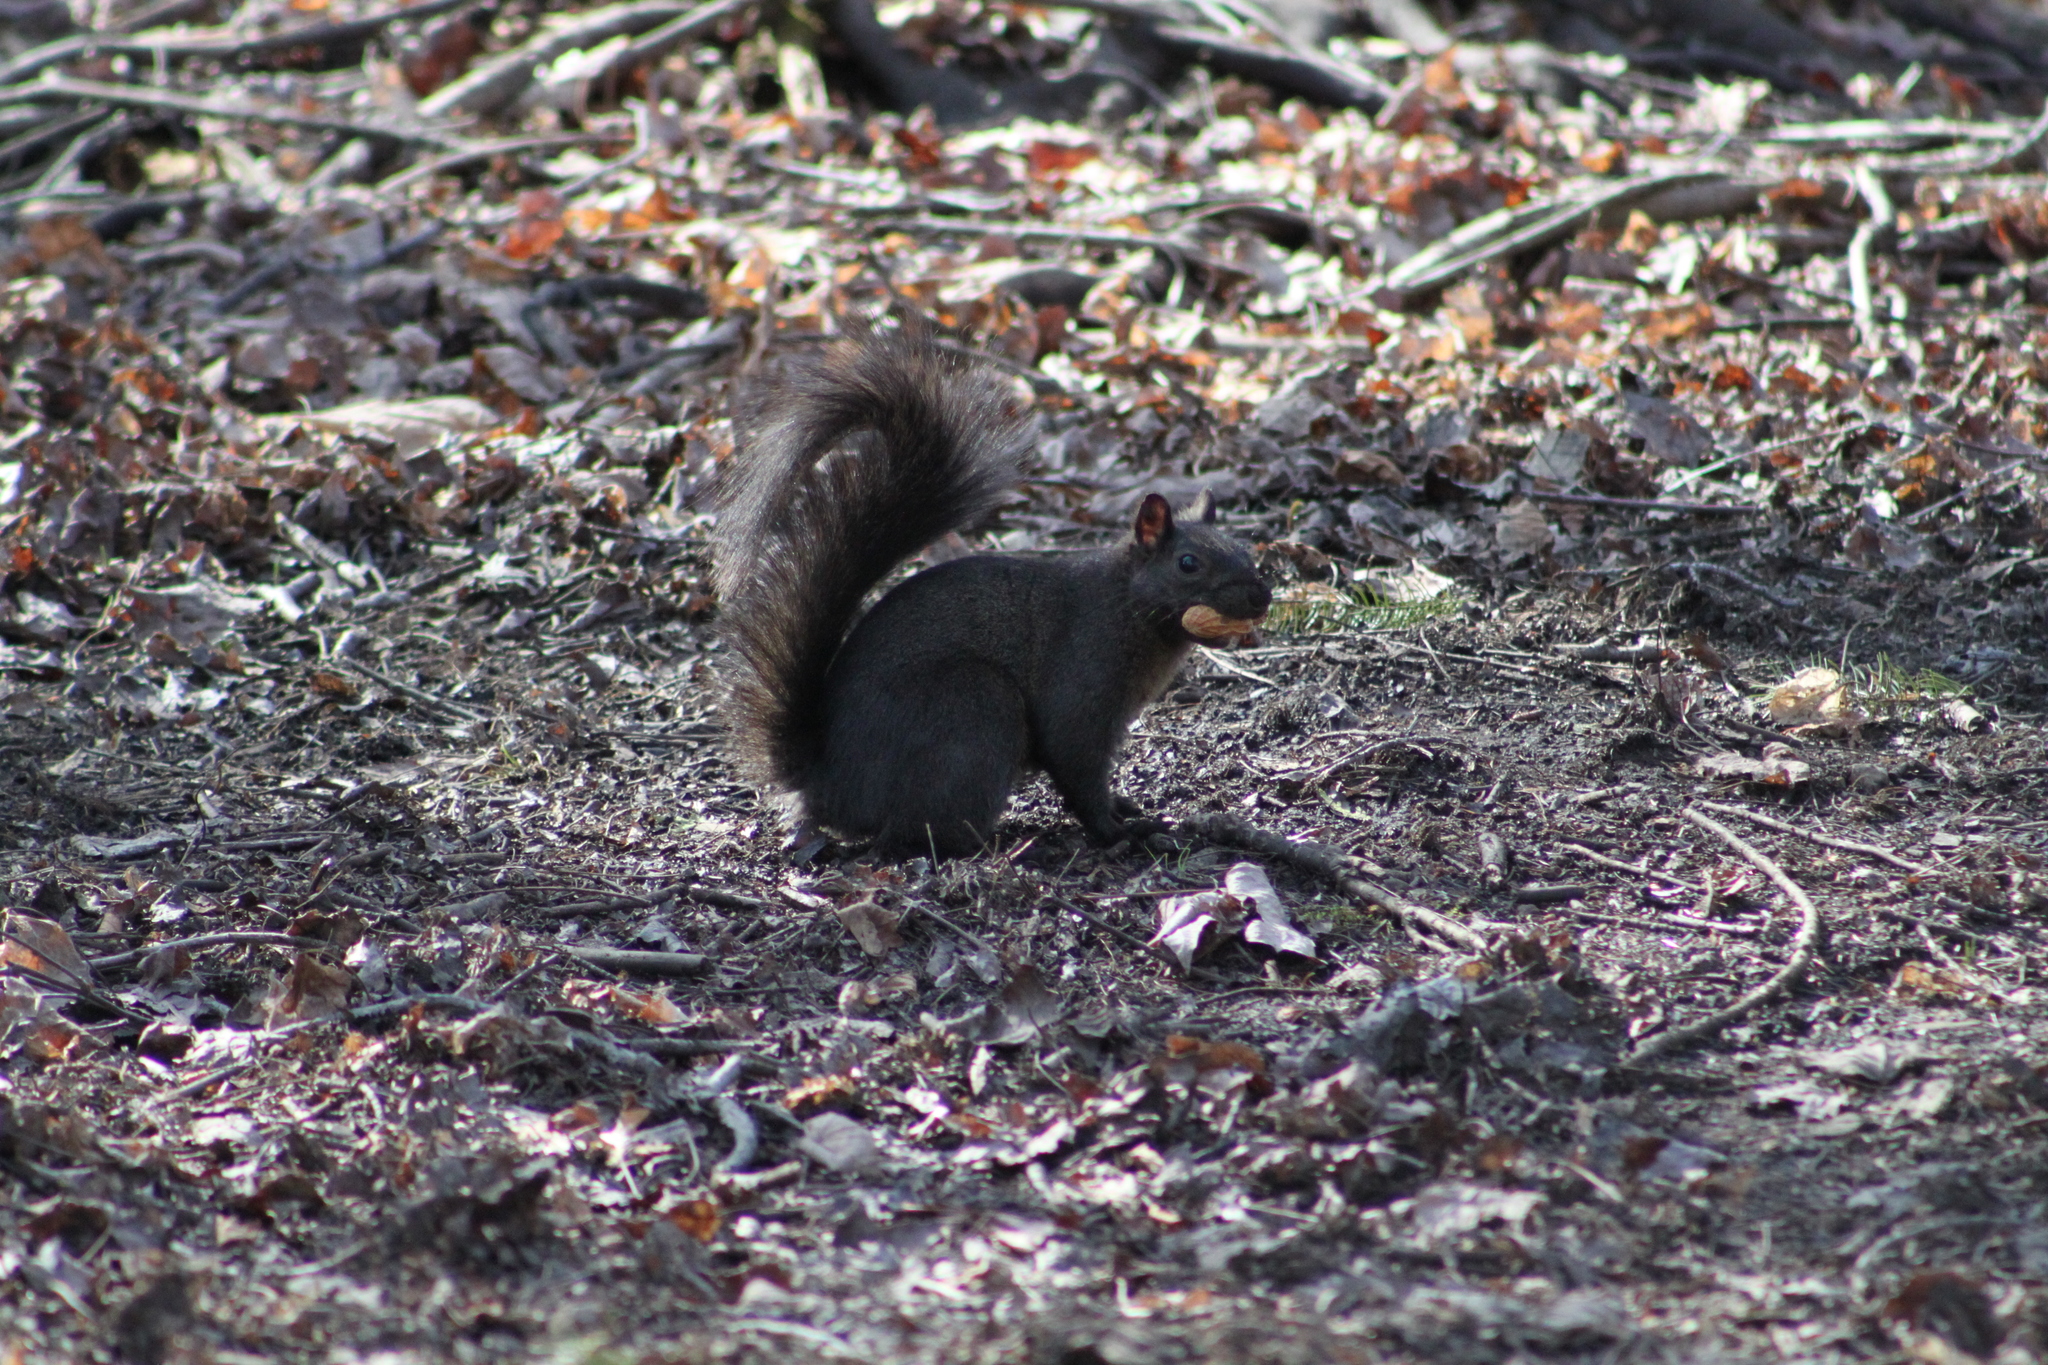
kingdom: Animalia
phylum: Chordata
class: Mammalia
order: Rodentia
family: Sciuridae
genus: Sciurus
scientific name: Sciurus carolinensis
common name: Eastern gray squirrel
